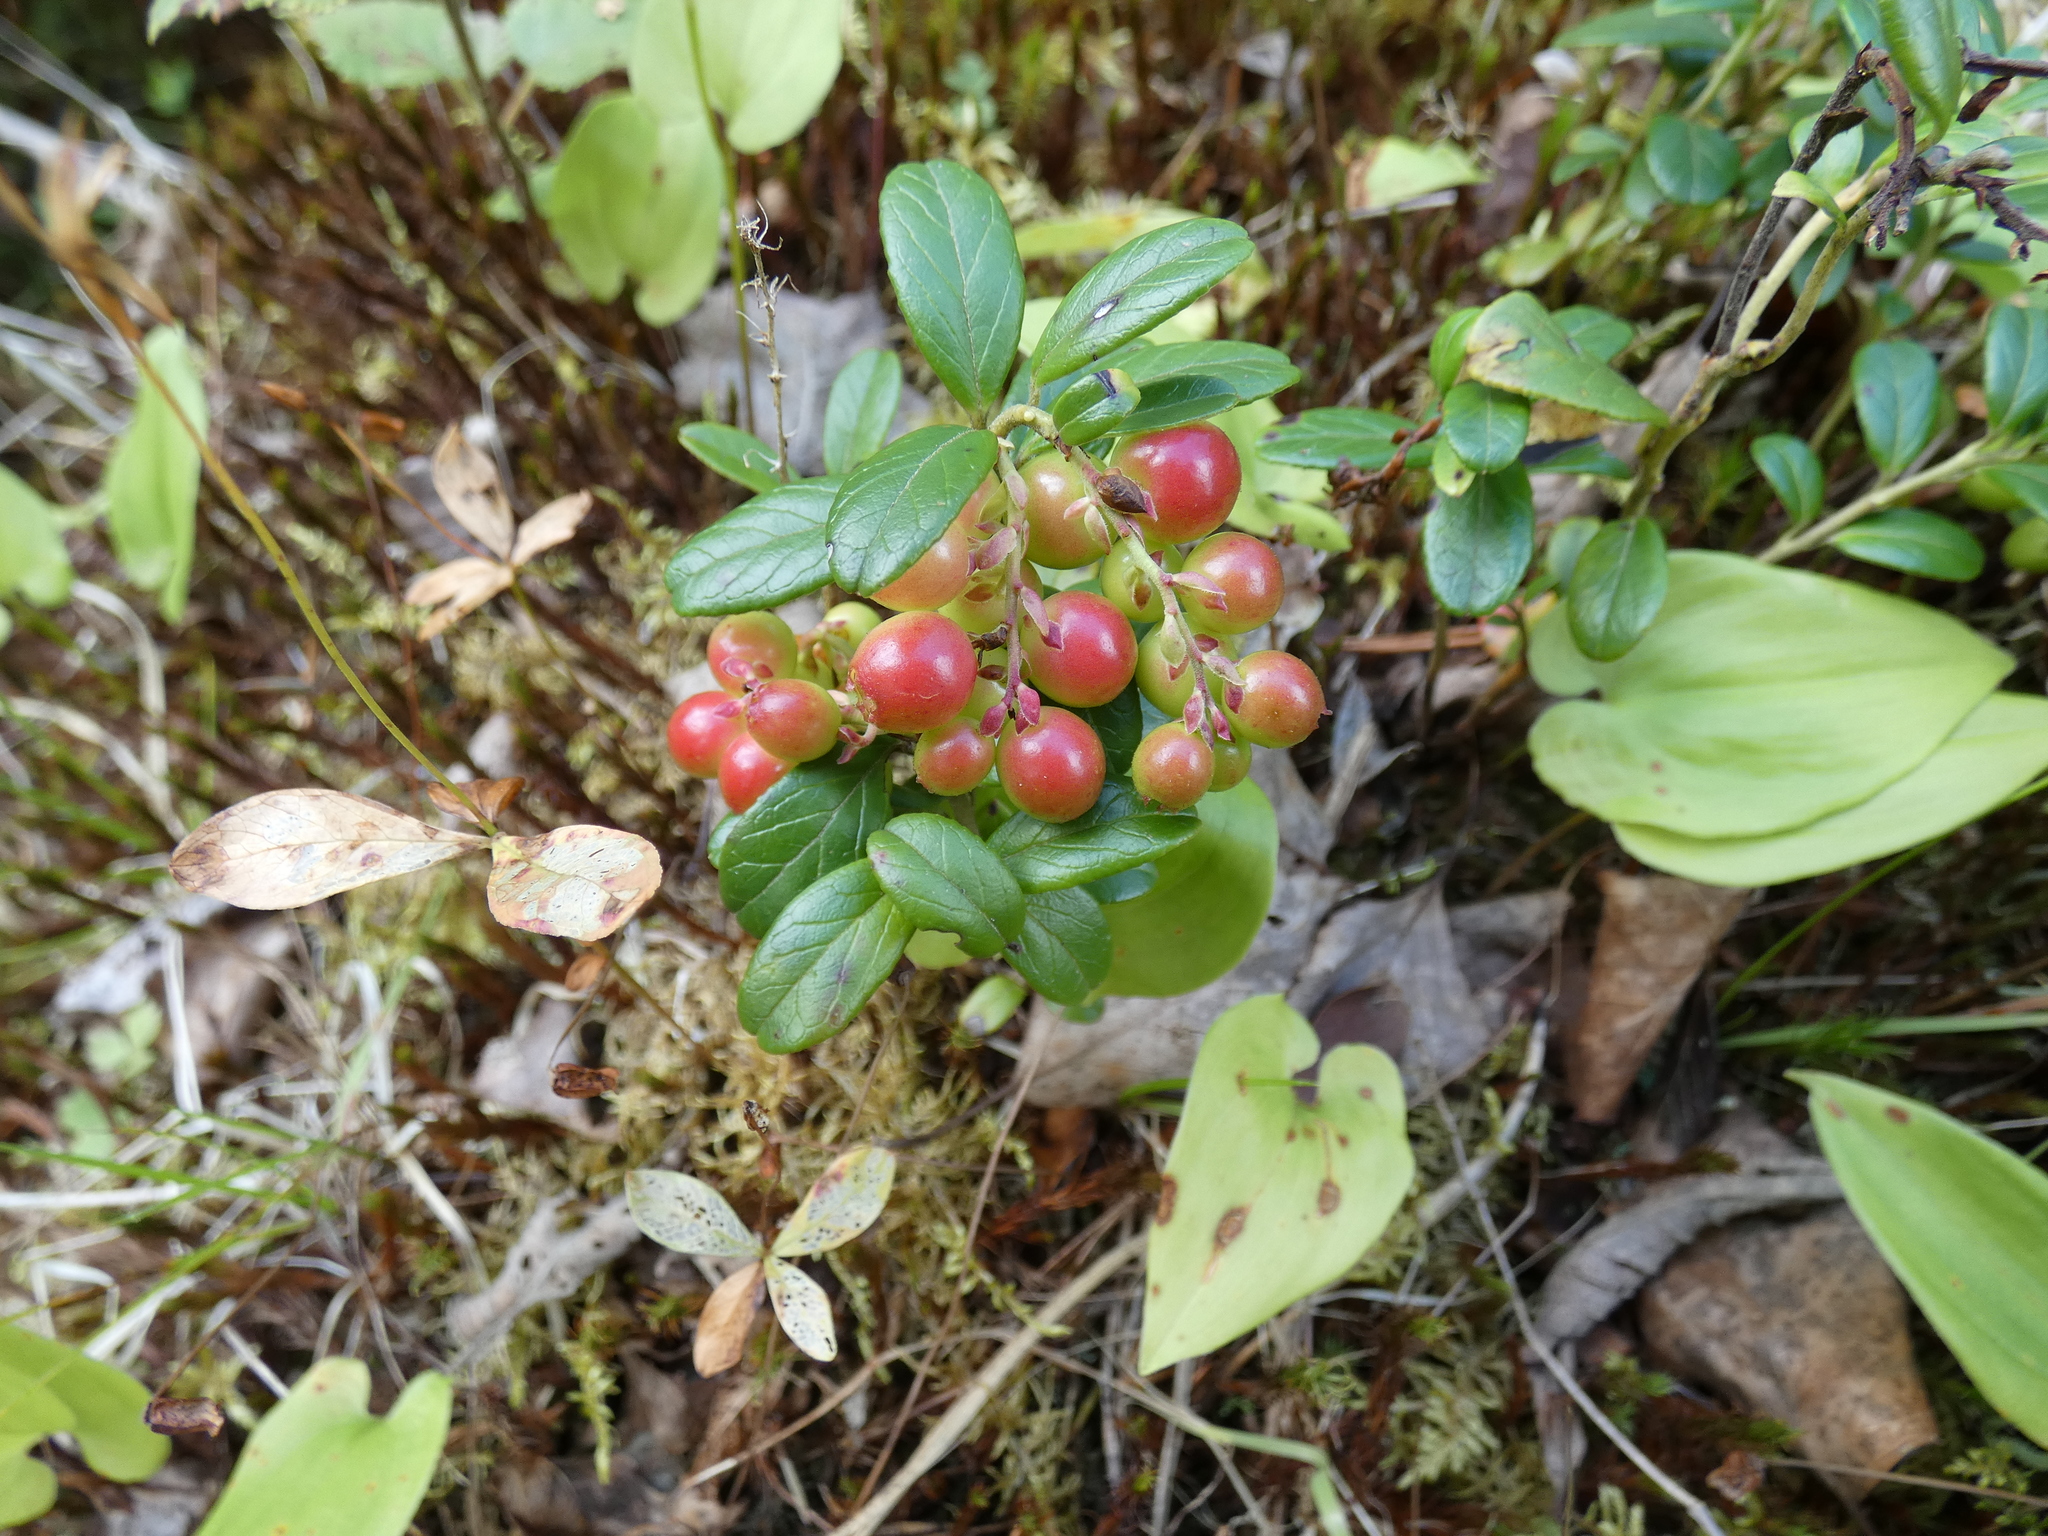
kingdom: Plantae
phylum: Tracheophyta
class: Magnoliopsida
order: Ericales
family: Ericaceae
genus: Vaccinium
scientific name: Vaccinium vitis-idaea
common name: Cowberry
